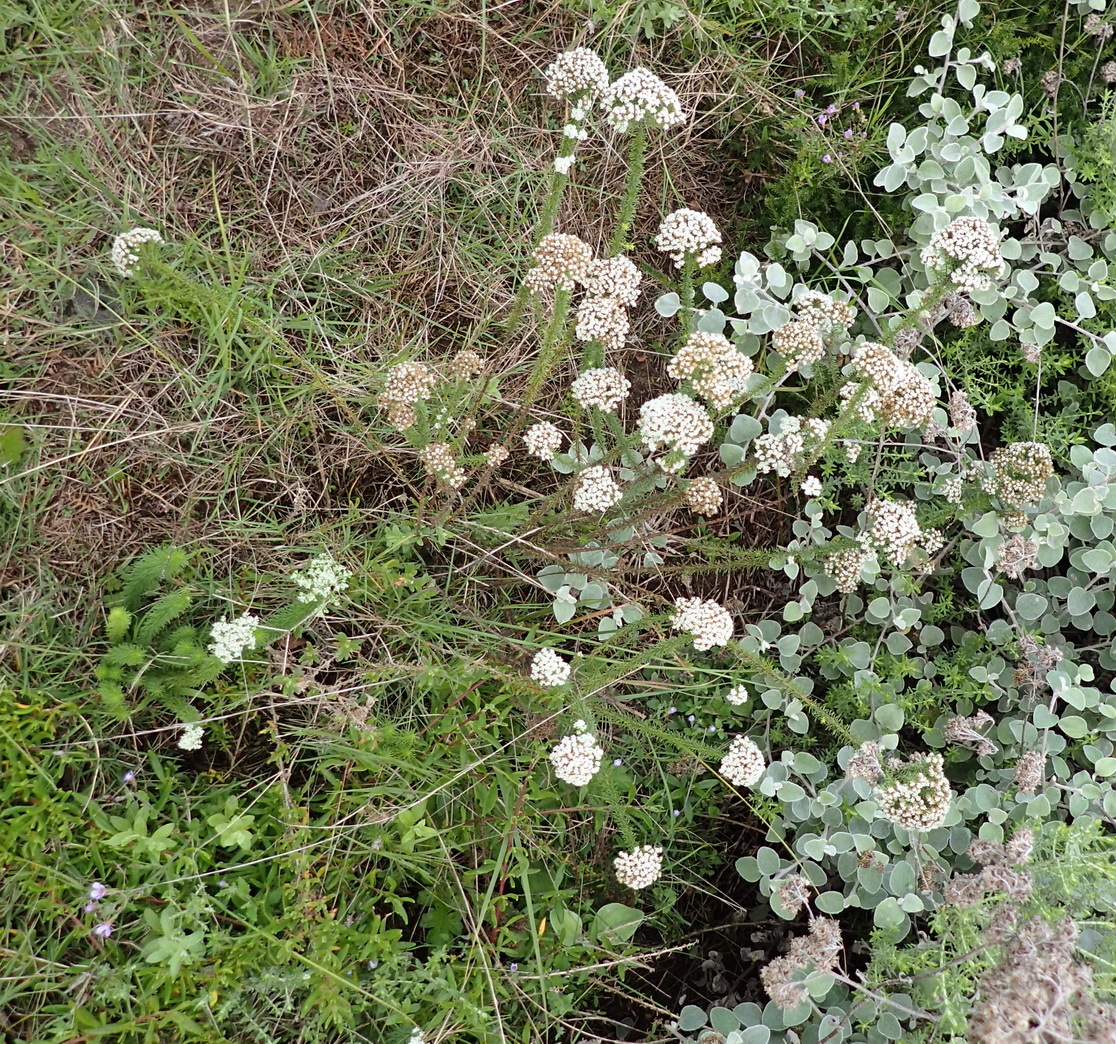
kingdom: Plantae
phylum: Tracheophyta
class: Magnoliopsida
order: Lamiales
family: Scrophulariaceae
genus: Selago
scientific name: Selago corymbosa
